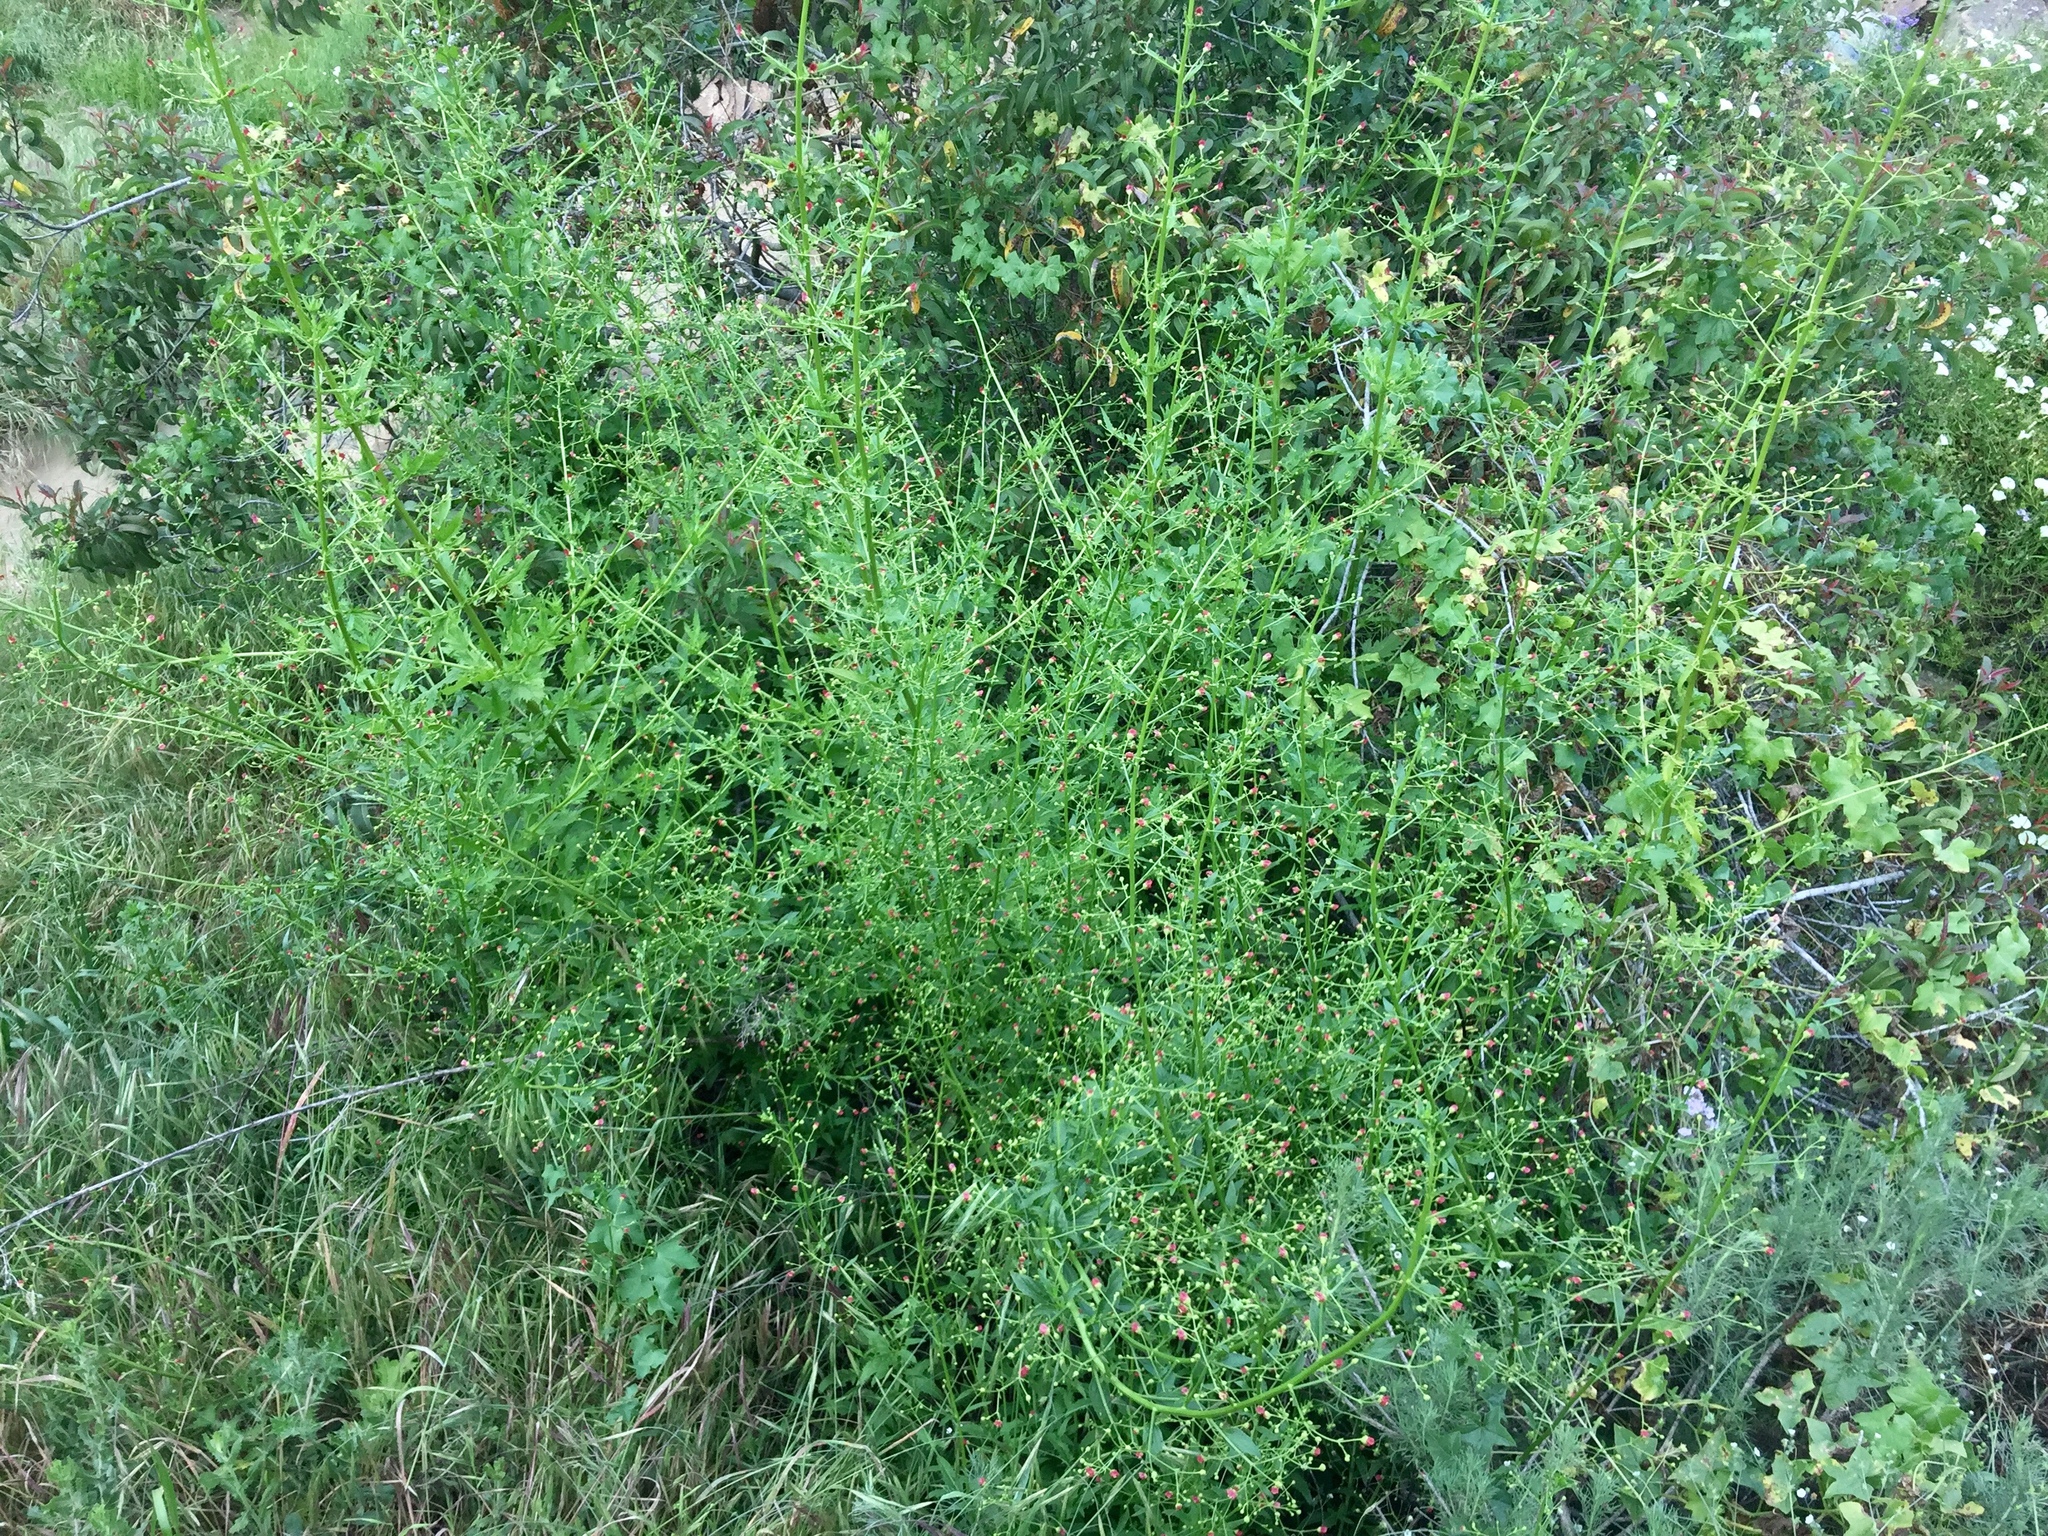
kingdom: Plantae
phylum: Tracheophyta
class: Magnoliopsida
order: Lamiales
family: Scrophulariaceae
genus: Scrophularia
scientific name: Scrophularia californica
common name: California figwort
